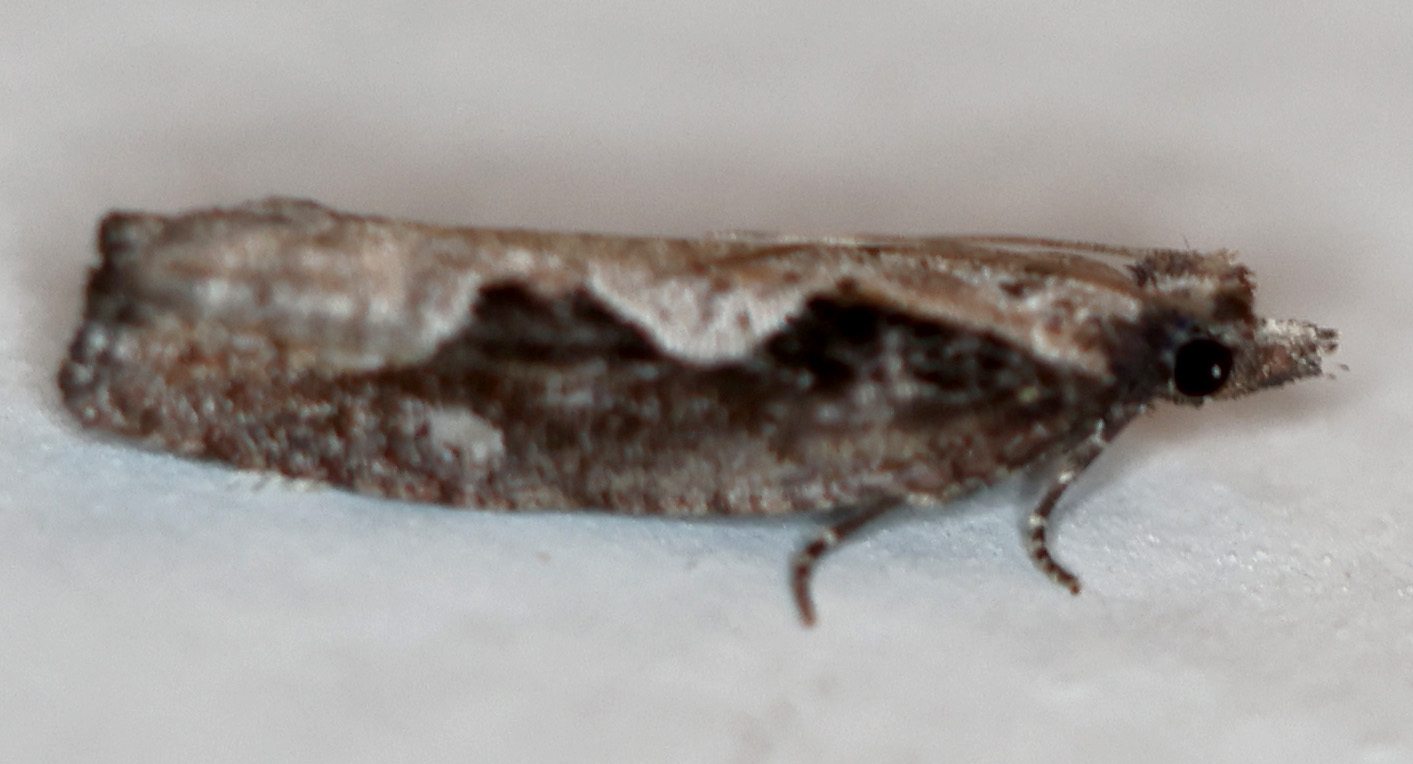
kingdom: Animalia
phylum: Arthropoda
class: Insecta
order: Lepidoptera
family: Tortricidae
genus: Epinotia
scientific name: Epinotia lindana
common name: Diamondback epinotia moth
